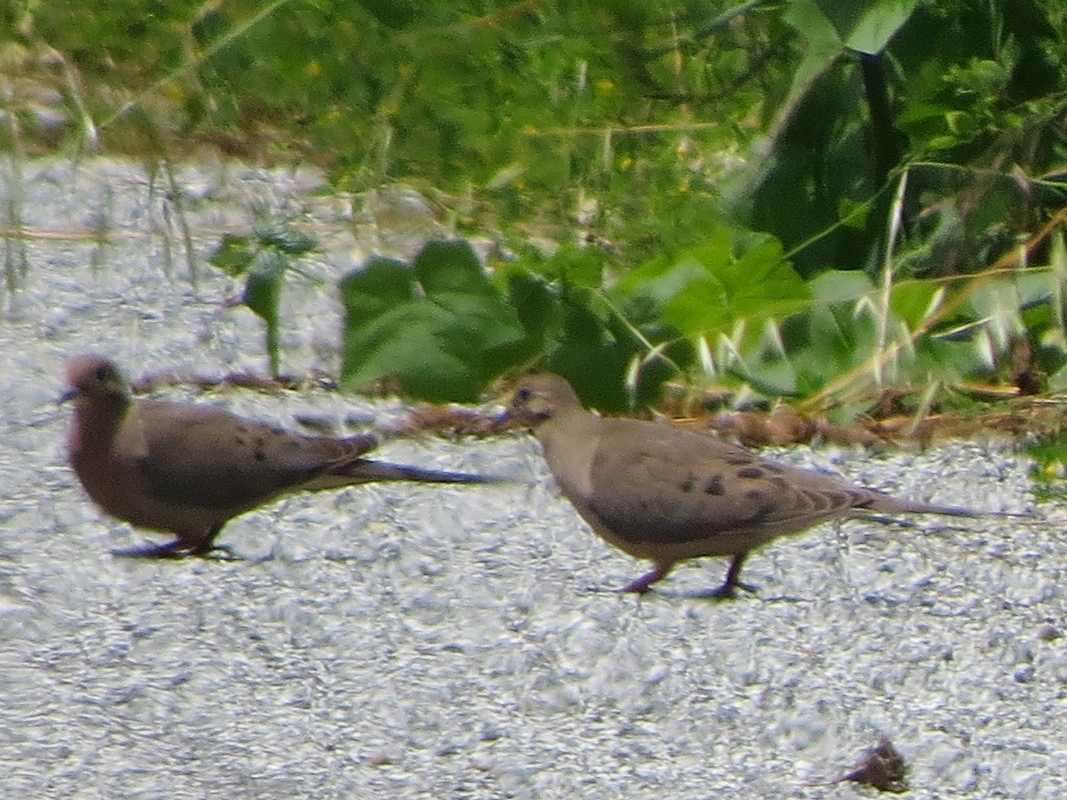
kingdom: Animalia
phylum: Chordata
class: Aves
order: Columbiformes
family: Columbidae
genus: Zenaida
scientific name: Zenaida macroura
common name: Mourning dove
